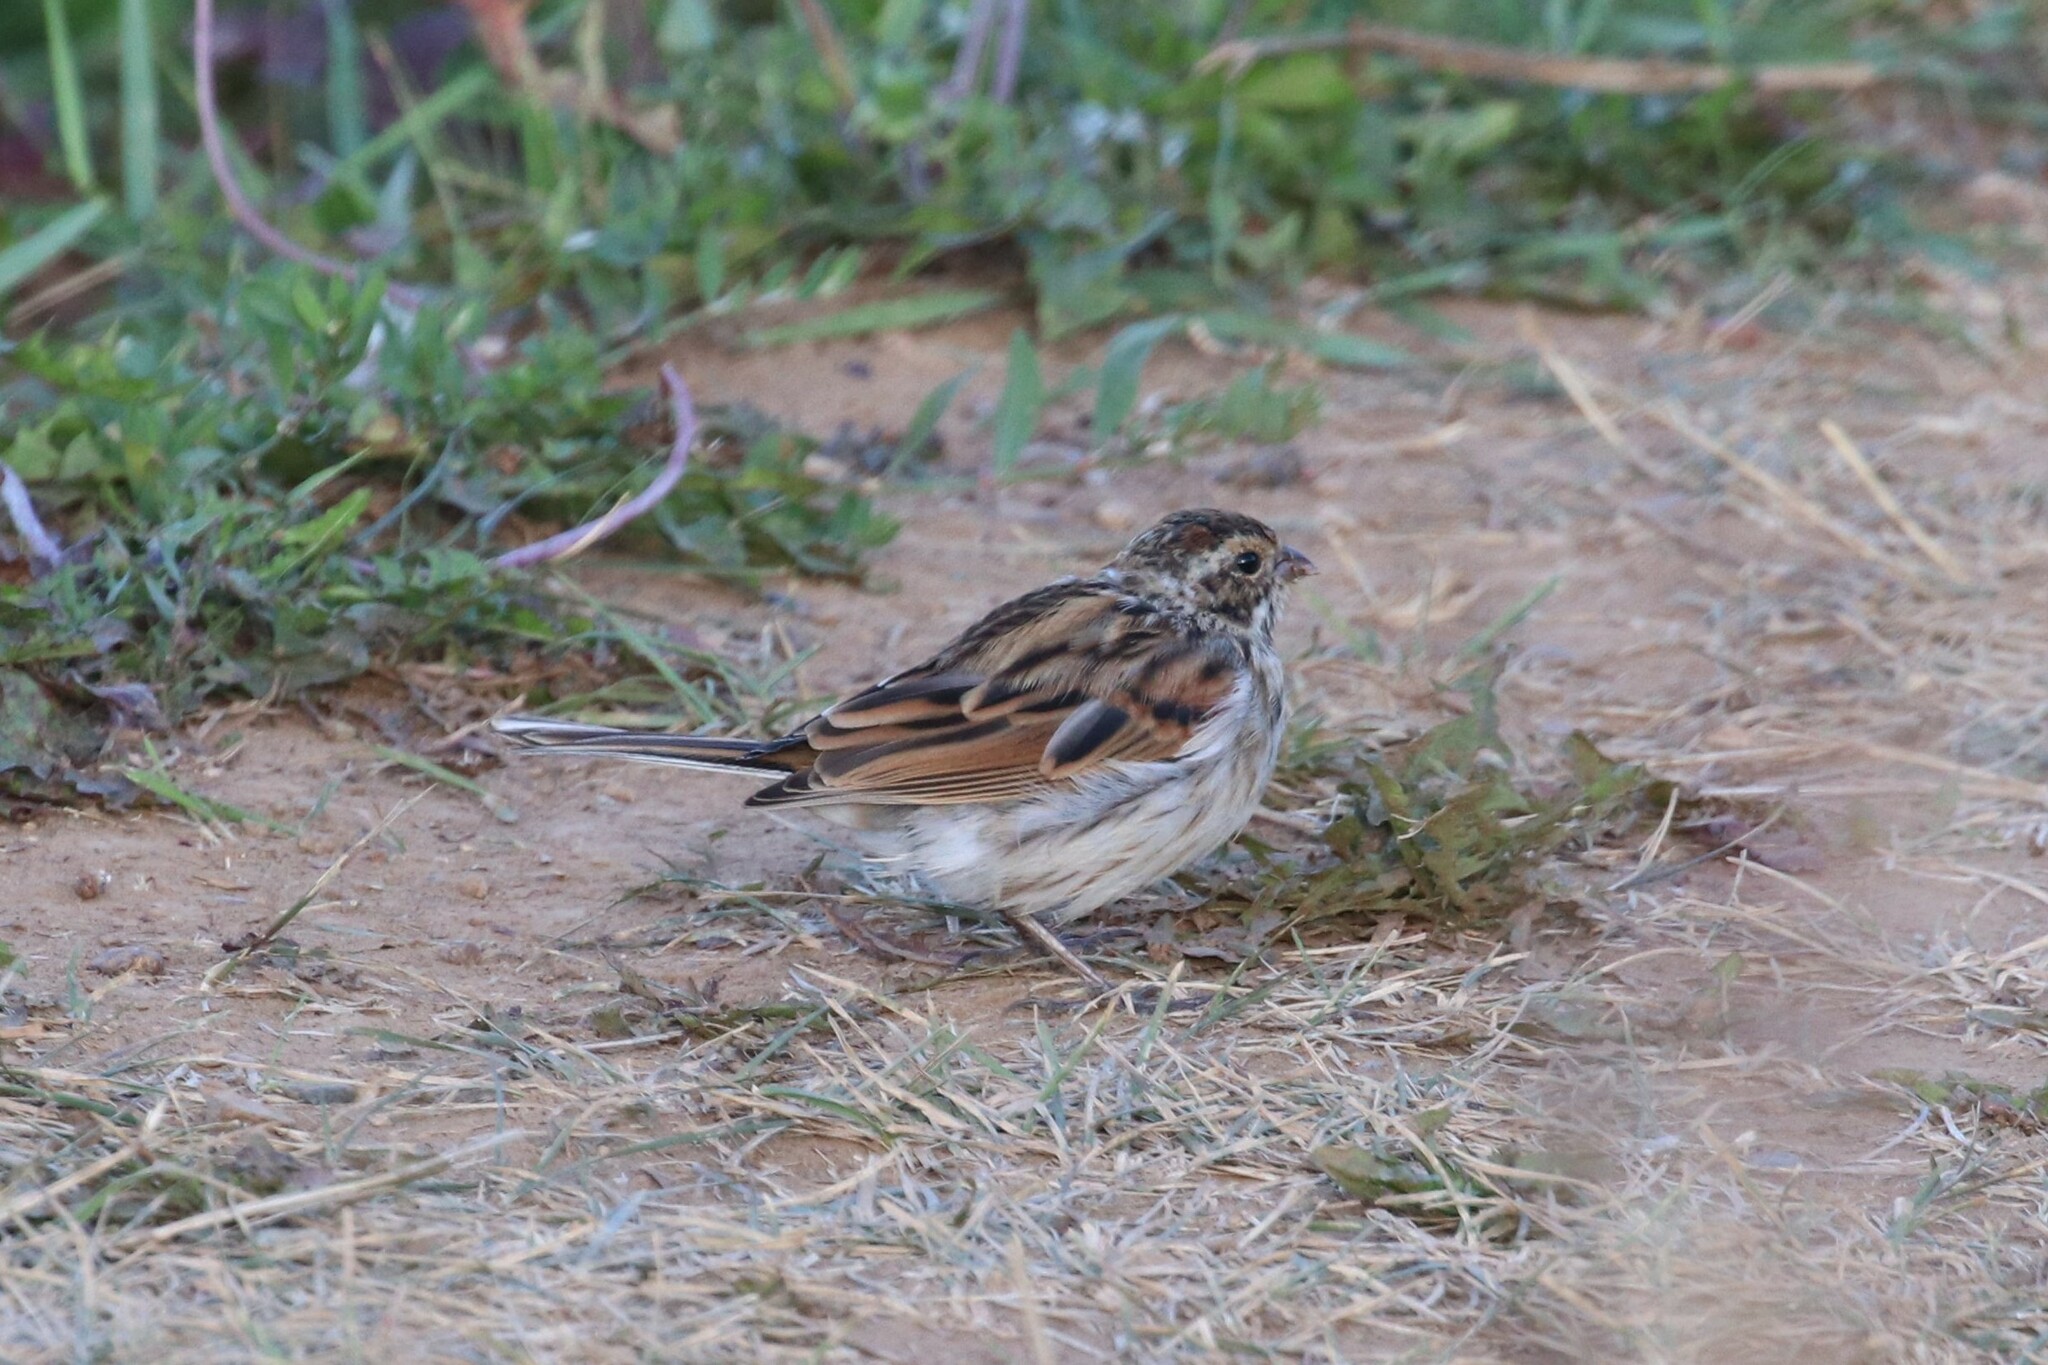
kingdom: Animalia
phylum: Chordata
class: Aves
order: Passeriformes
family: Emberizidae
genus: Emberiza
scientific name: Emberiza schoeniclus
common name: Reed bunting
